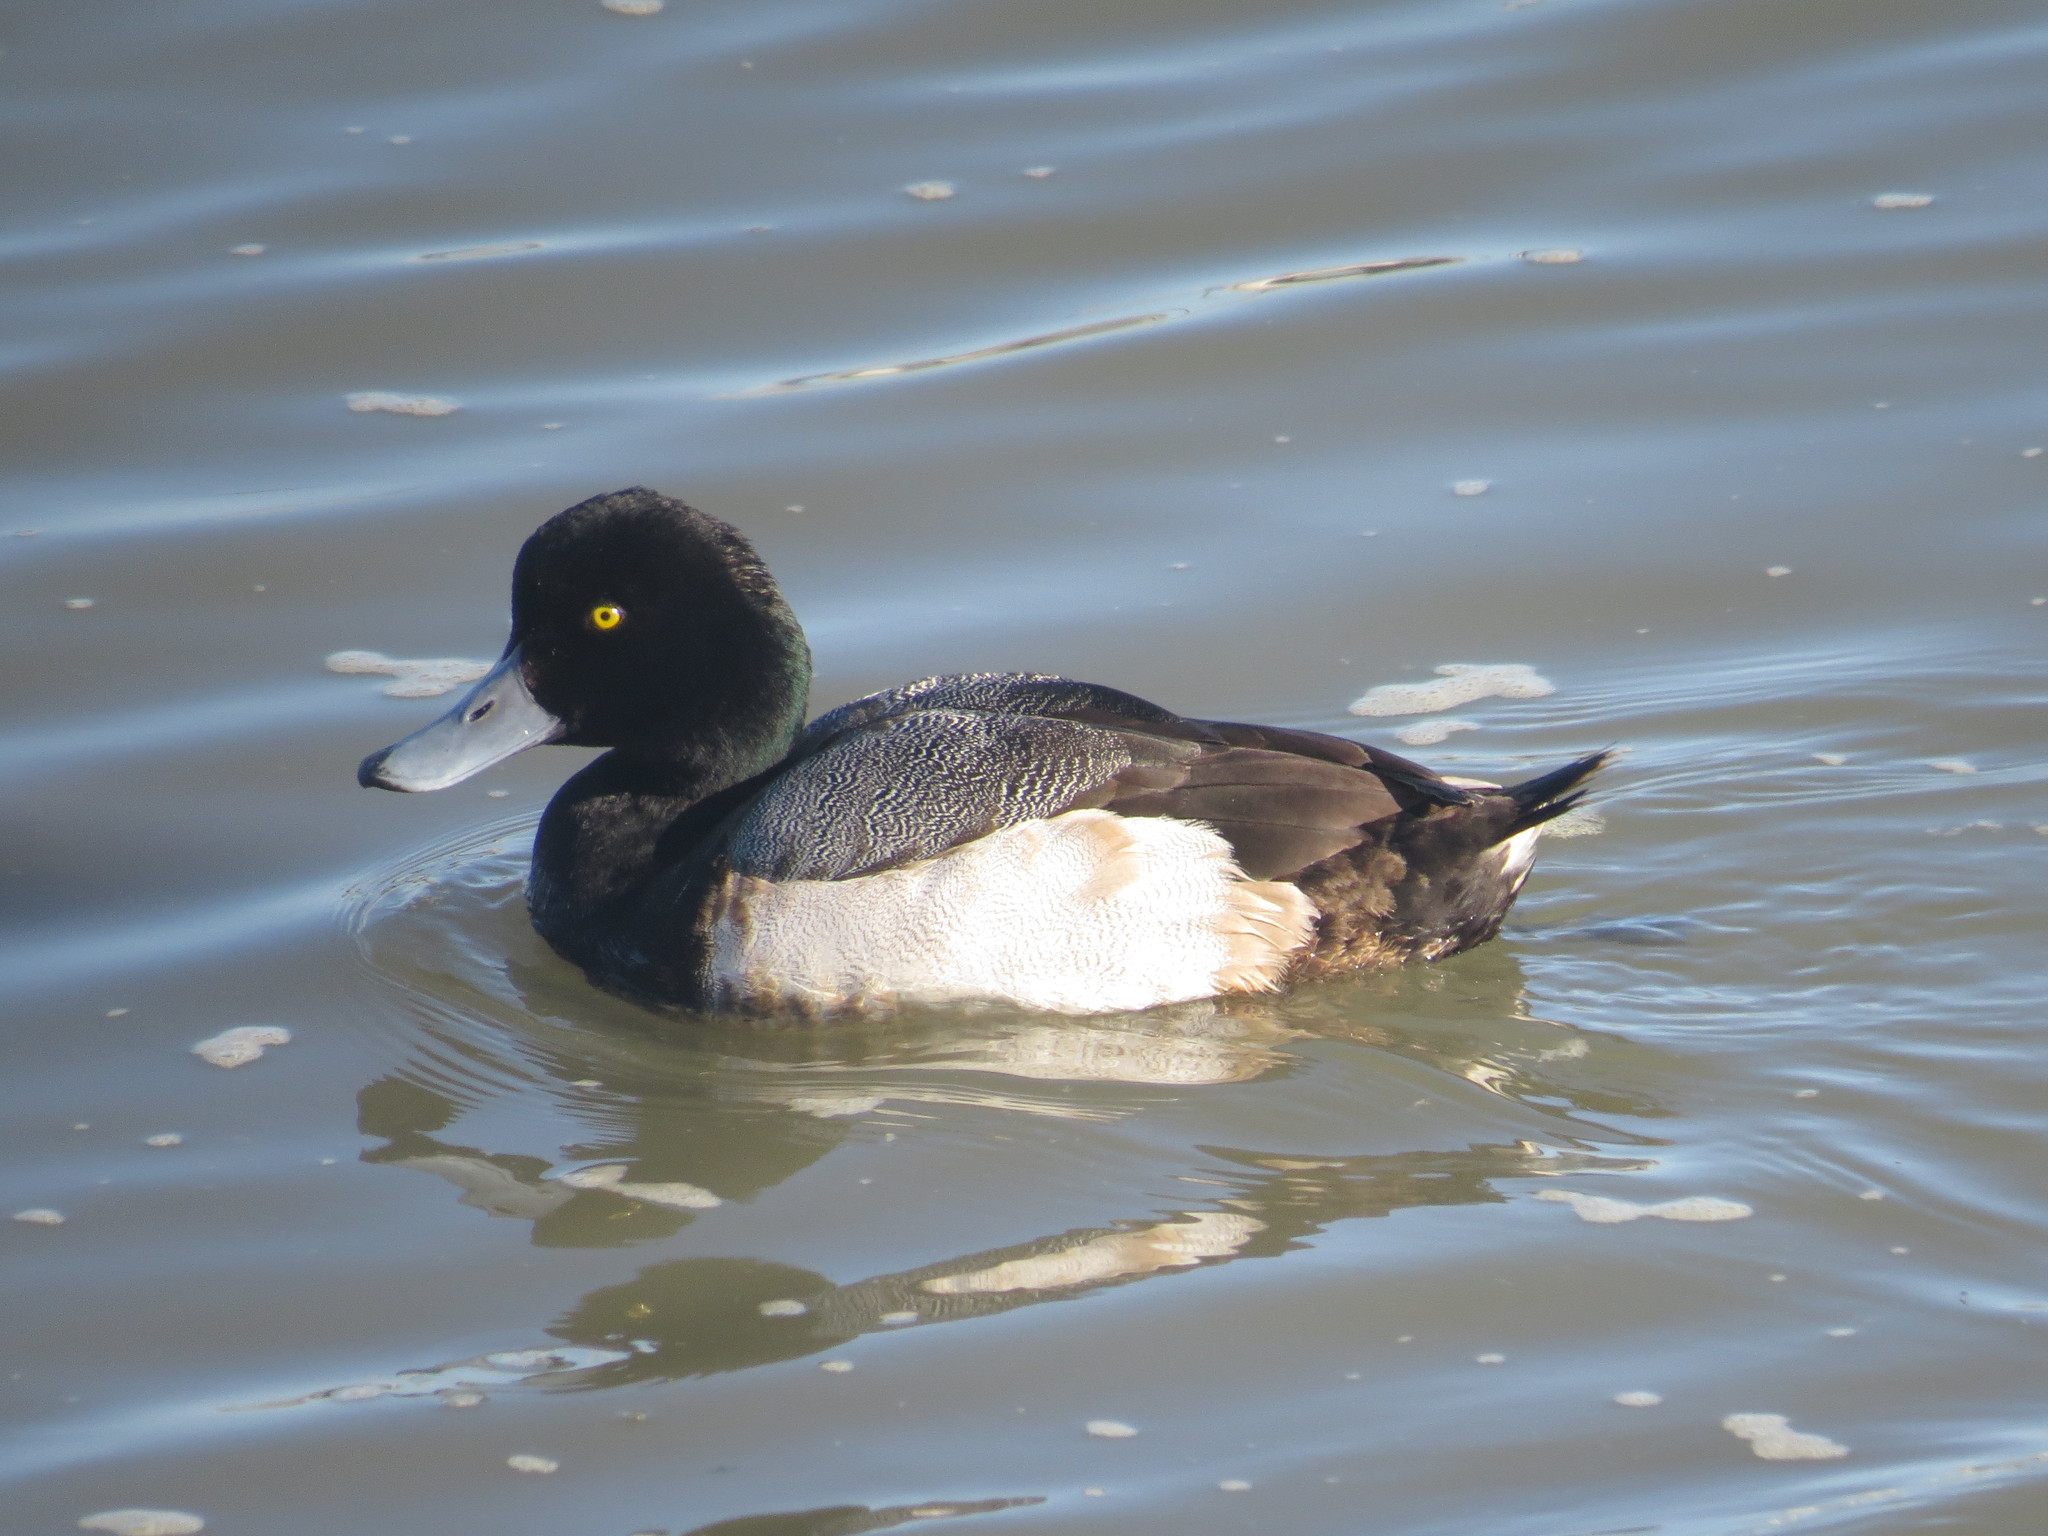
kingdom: Animalia
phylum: Chordata
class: Aves
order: Anseriformes
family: Anatidae
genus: Aythya
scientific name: Aythya marila
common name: Greater scaup
